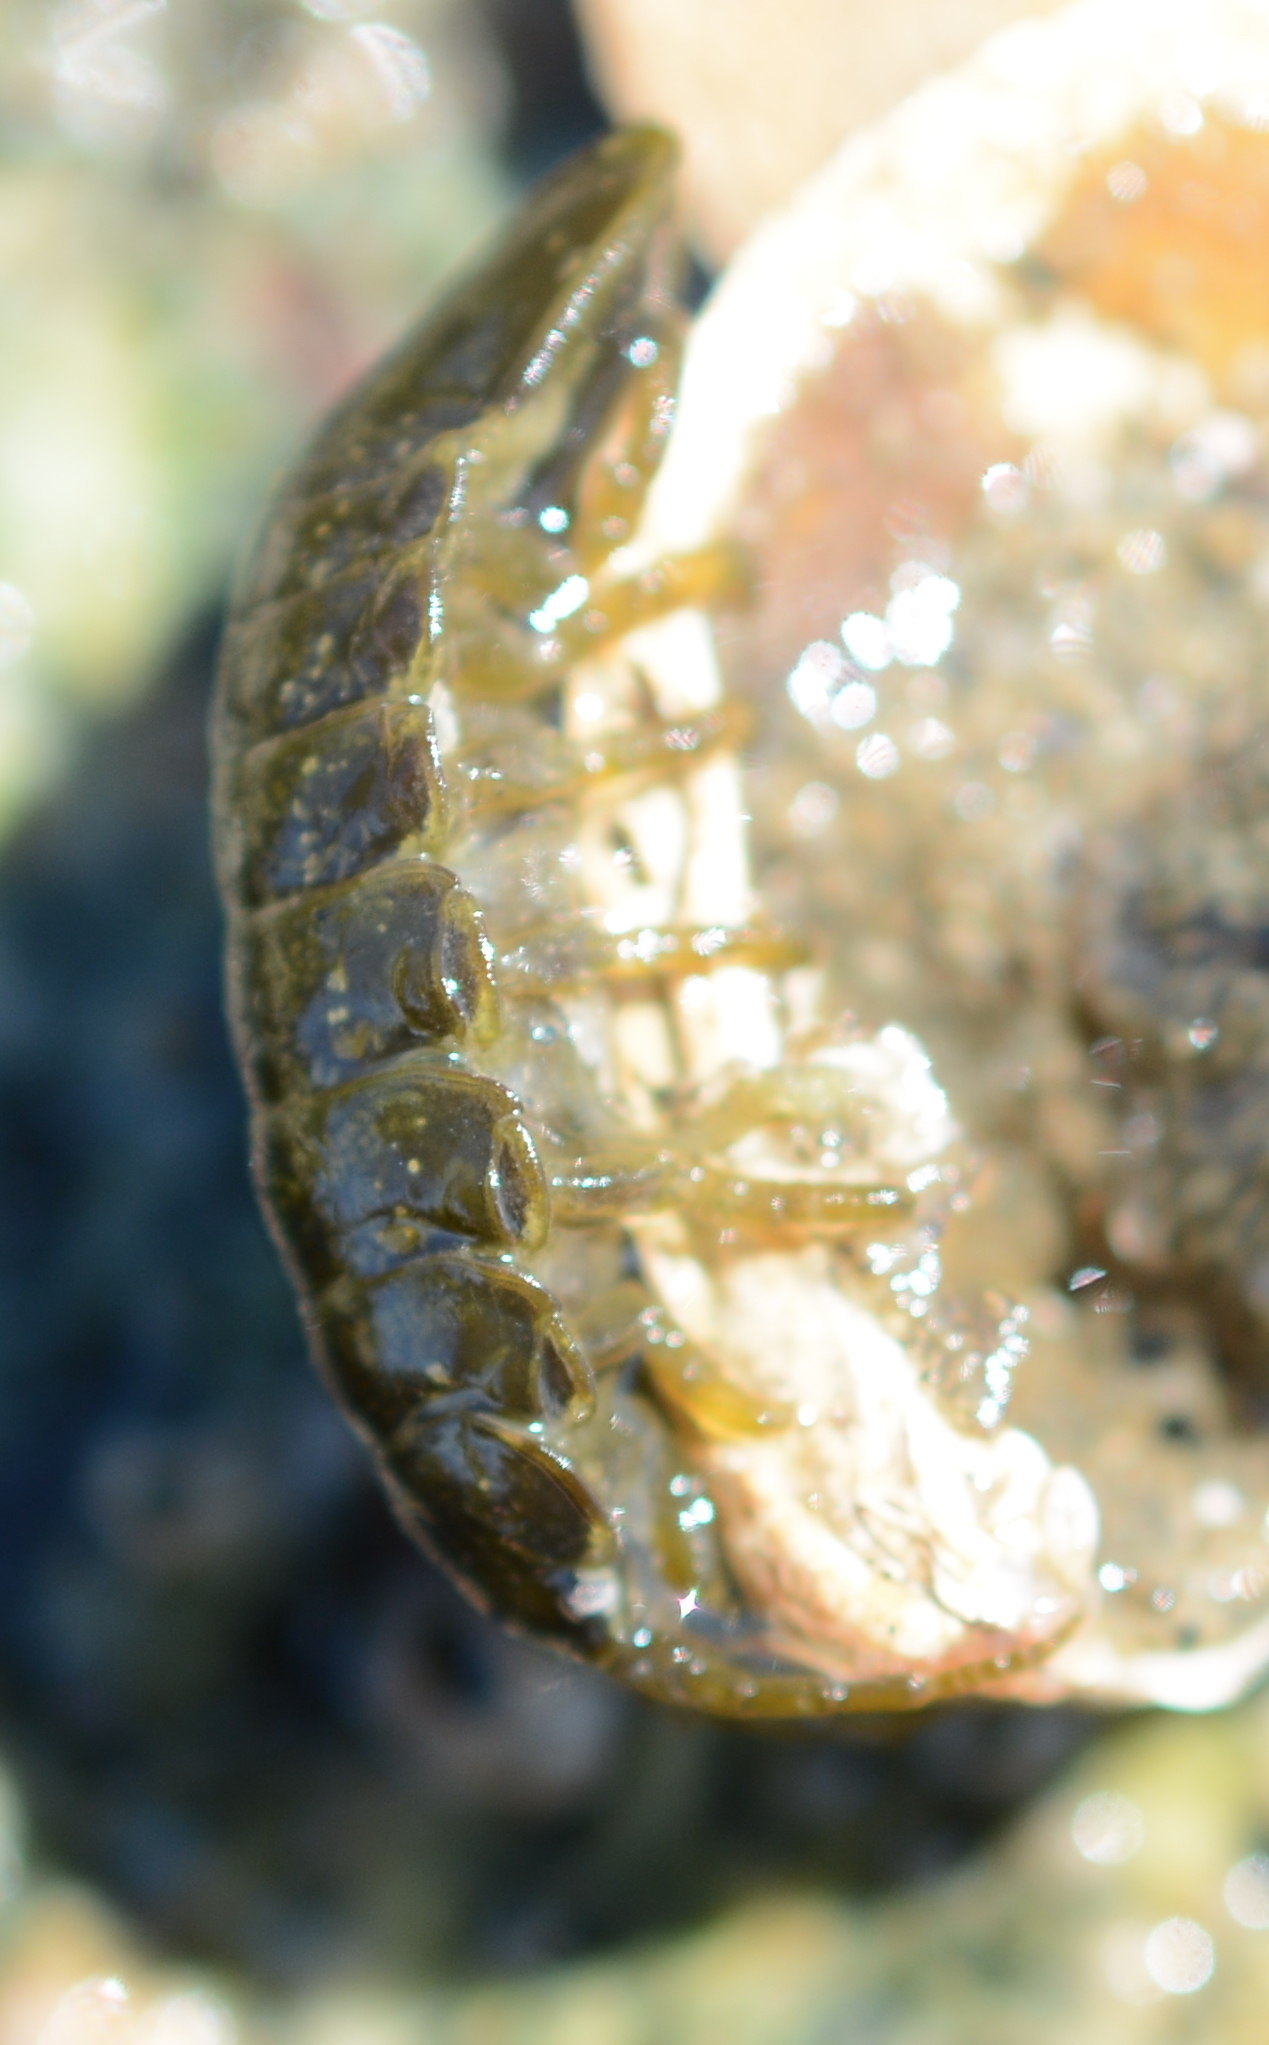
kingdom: Animalia
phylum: Arthropoda
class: Malacostraca
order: Isopoda
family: Idoteidae
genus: Pentidotea
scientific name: Pentidotea wosnesenskii
